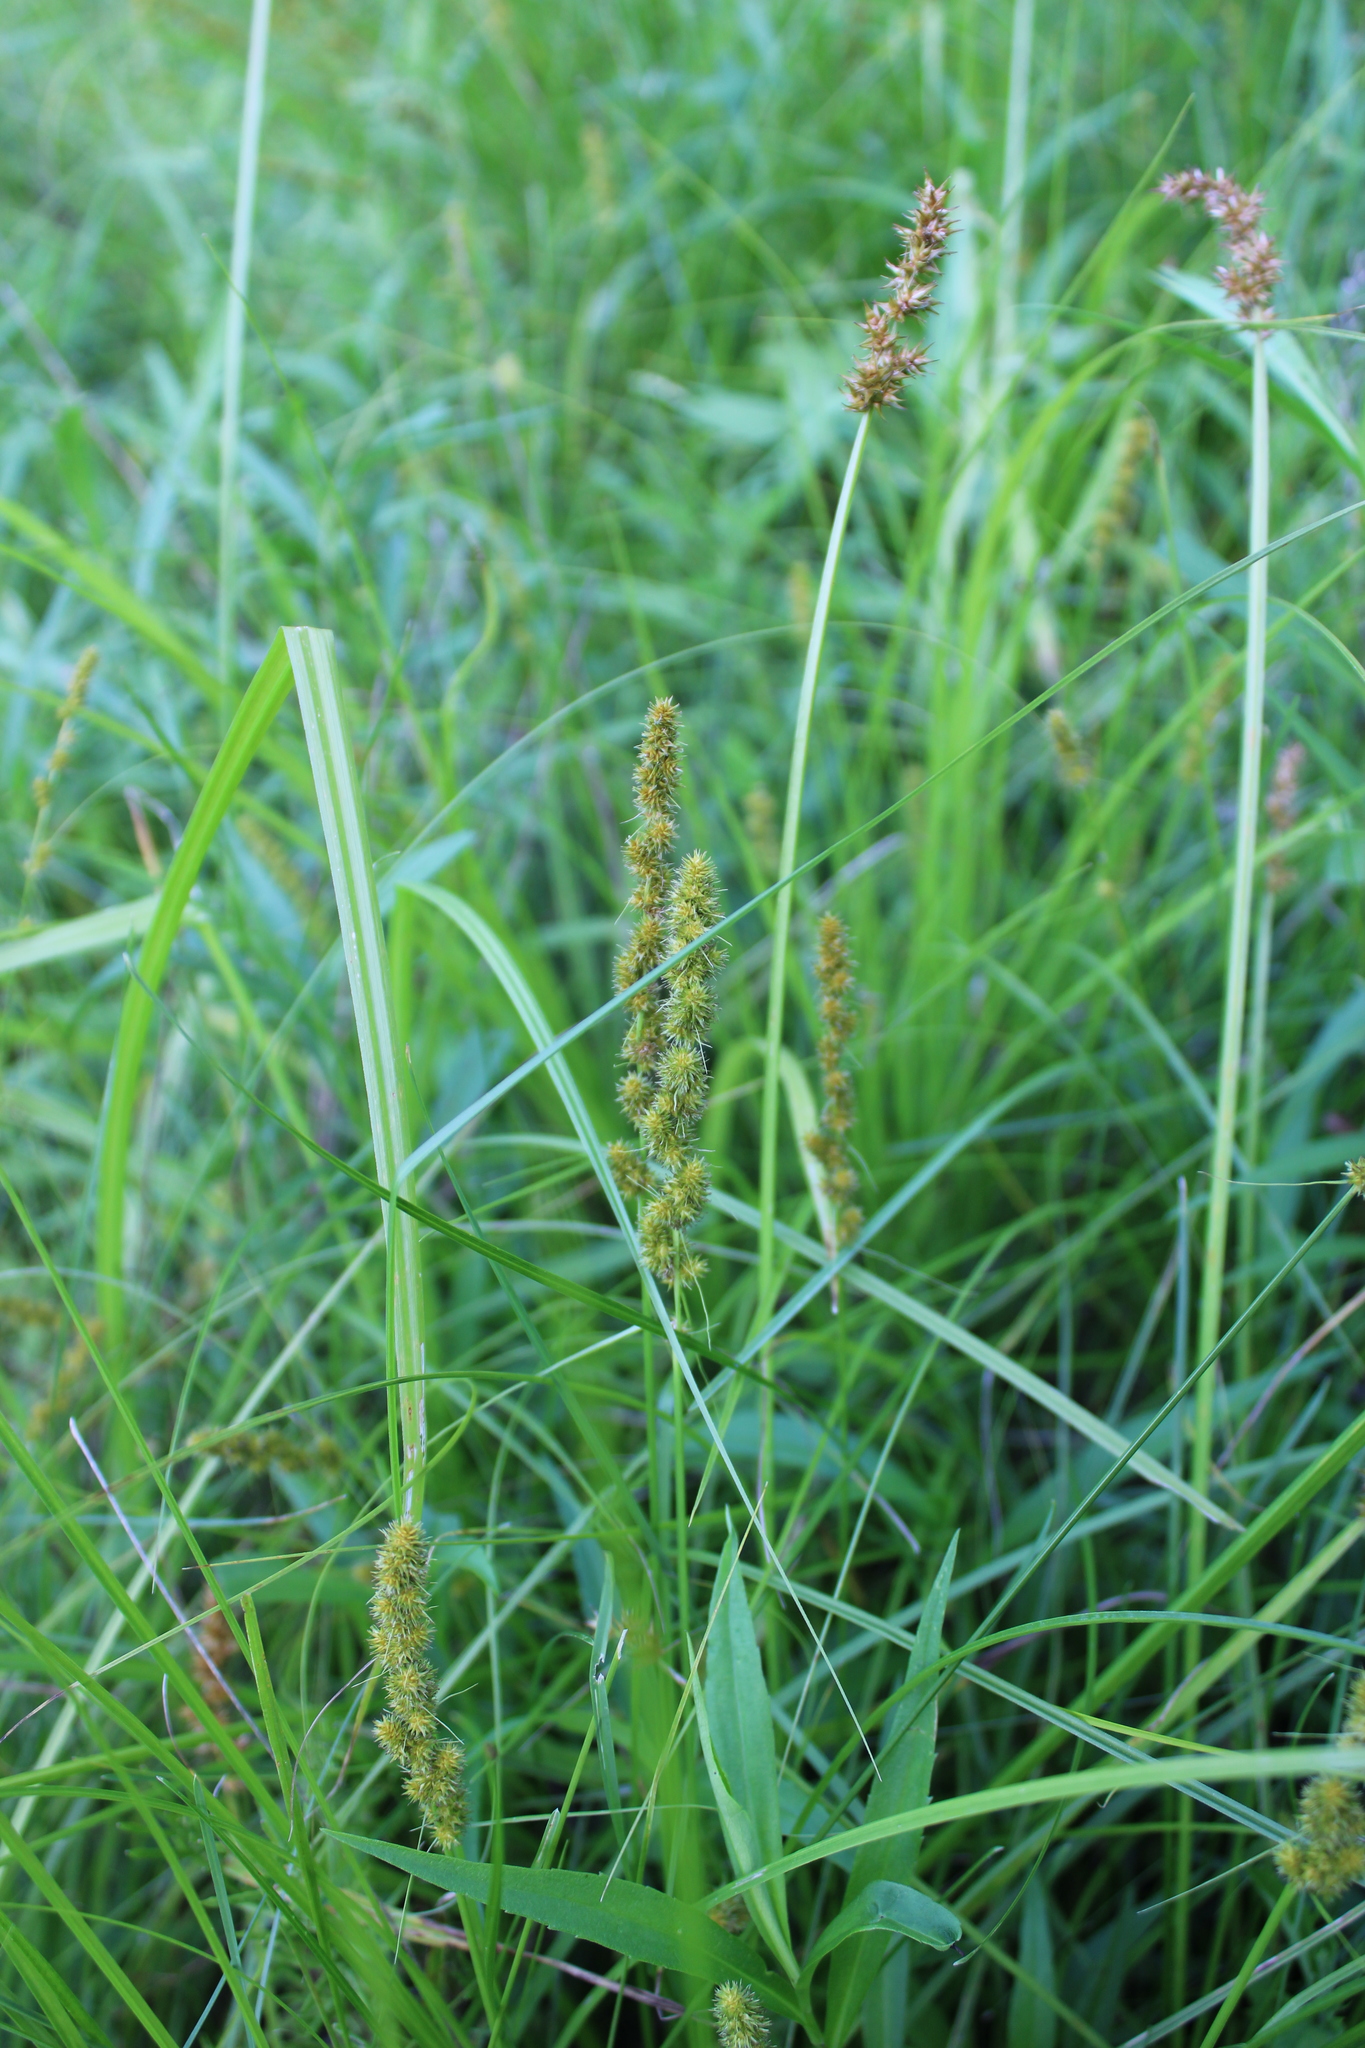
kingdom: Plantae
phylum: Tracheophyta
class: Liliopsida
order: Poales
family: Cyperaceae
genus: Carex
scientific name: Carex vulpinoidea
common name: American fox-sedge
